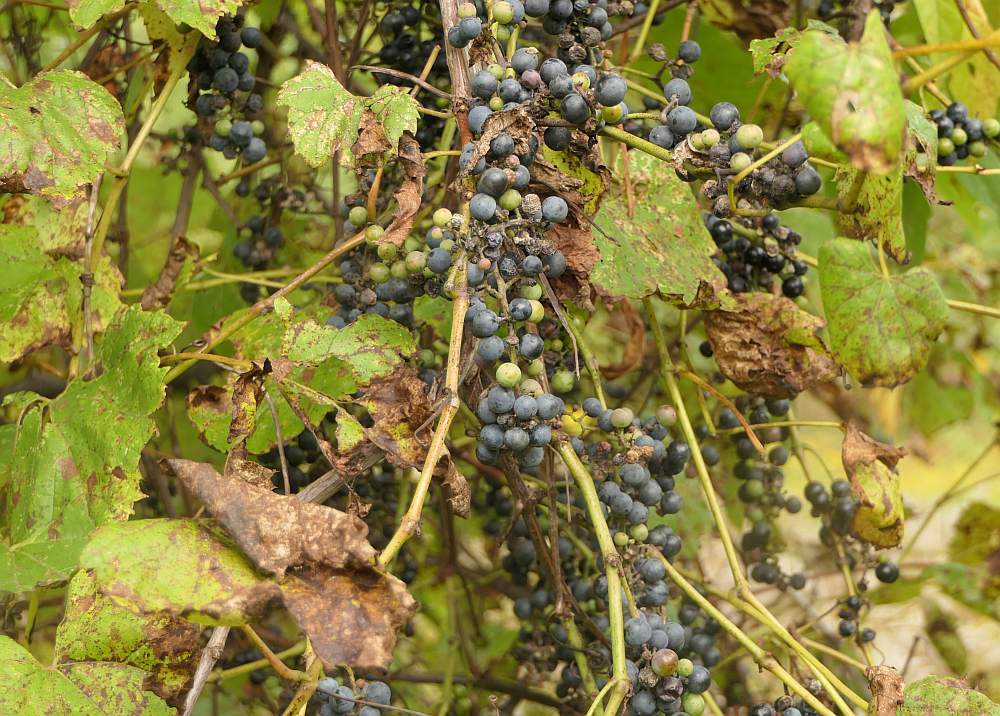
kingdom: Plantae
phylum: Tracheophyta
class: Magnoliopsida
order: Vitales
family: Vitaceae
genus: Vitis
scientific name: Vitis riparia
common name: Frost grape
